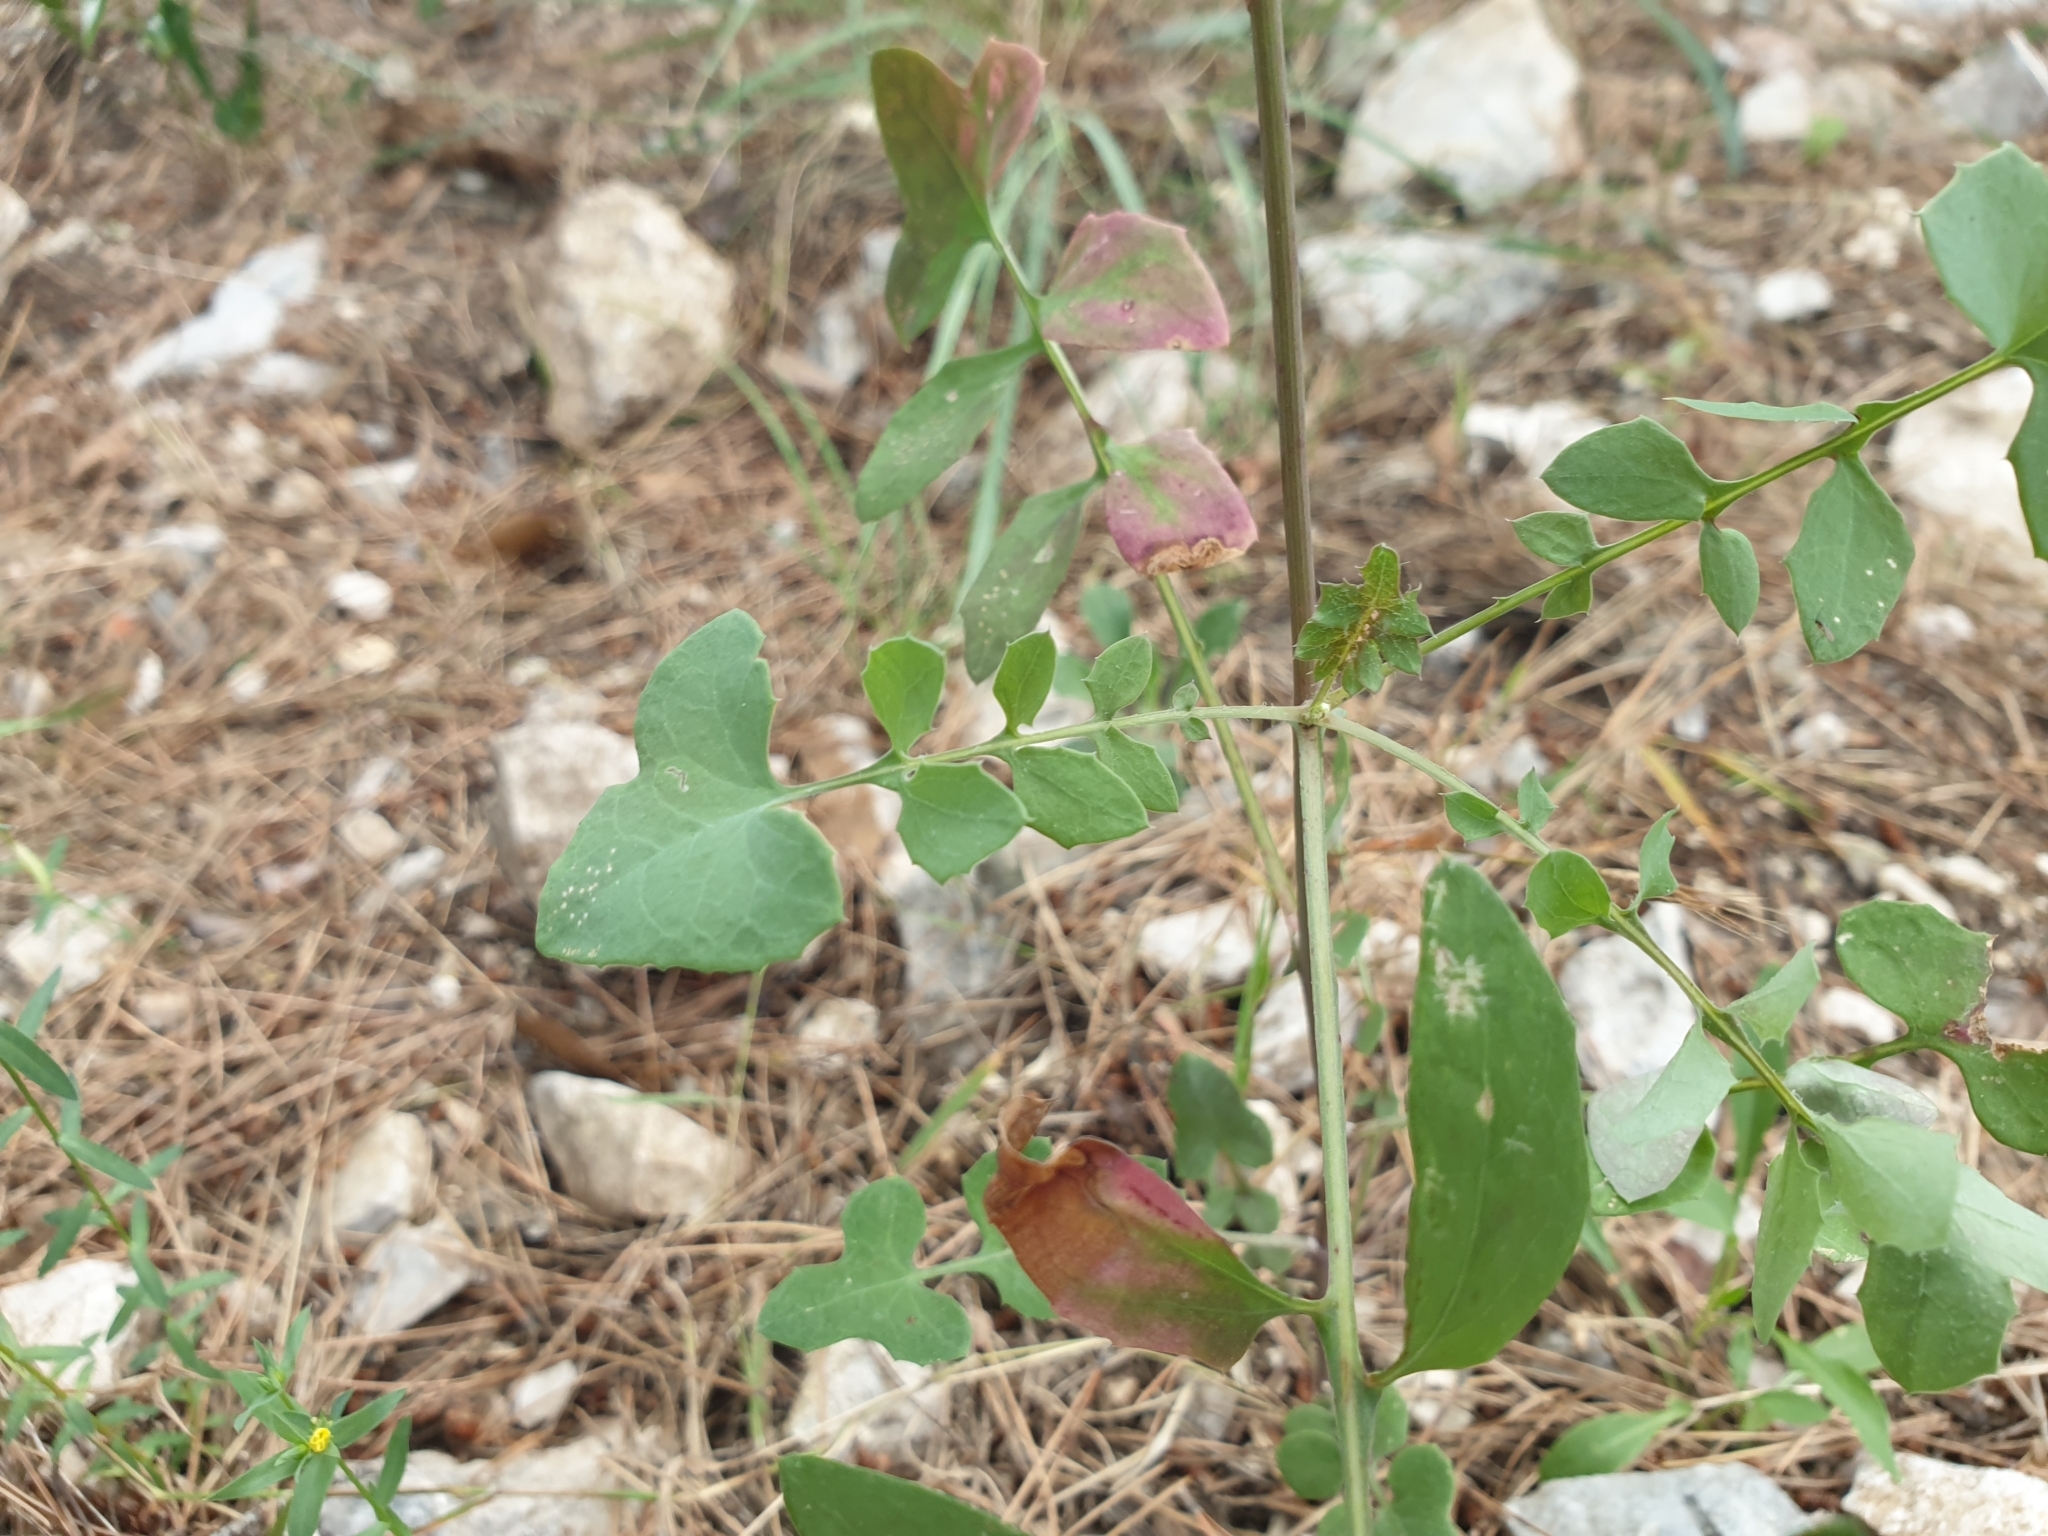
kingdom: Plantae
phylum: Tracheophyta
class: Magnoliopsida
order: Asterales
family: Asteraceae
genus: Sonchus
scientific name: Sonchus tenerrimus
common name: Clammy sowthistle
